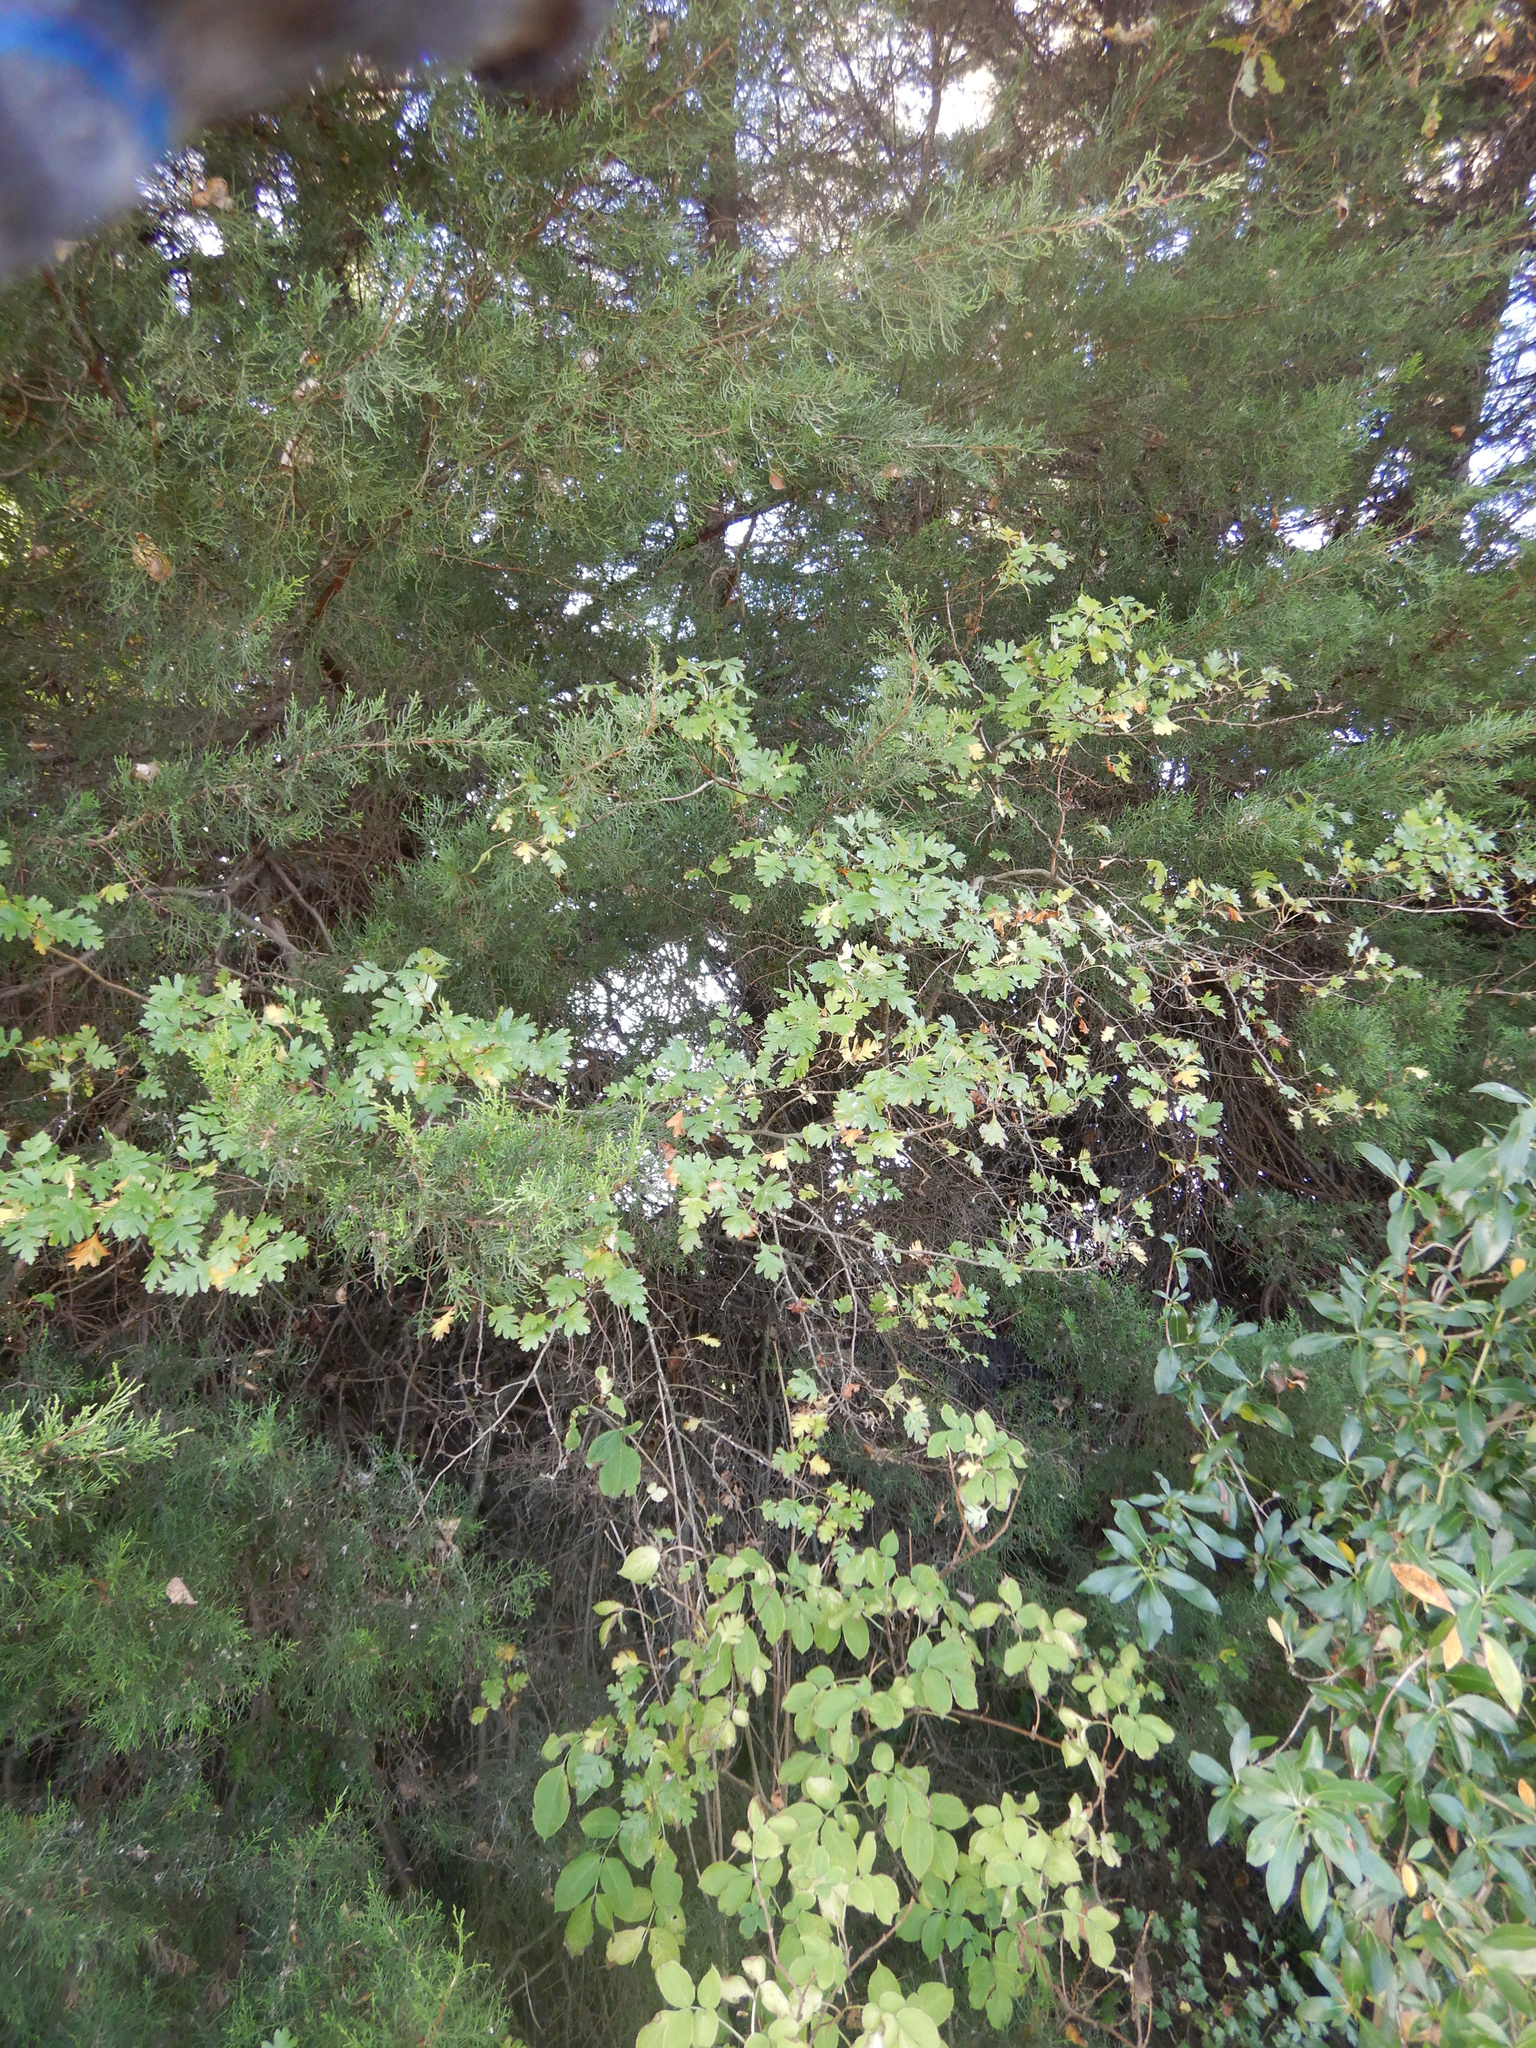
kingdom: Plantae
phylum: Tracheophyta
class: Magnoliopsida
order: Rosales
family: Rosaceae
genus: Crataegus
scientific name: Crataegus monogyna
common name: Hawthorn
